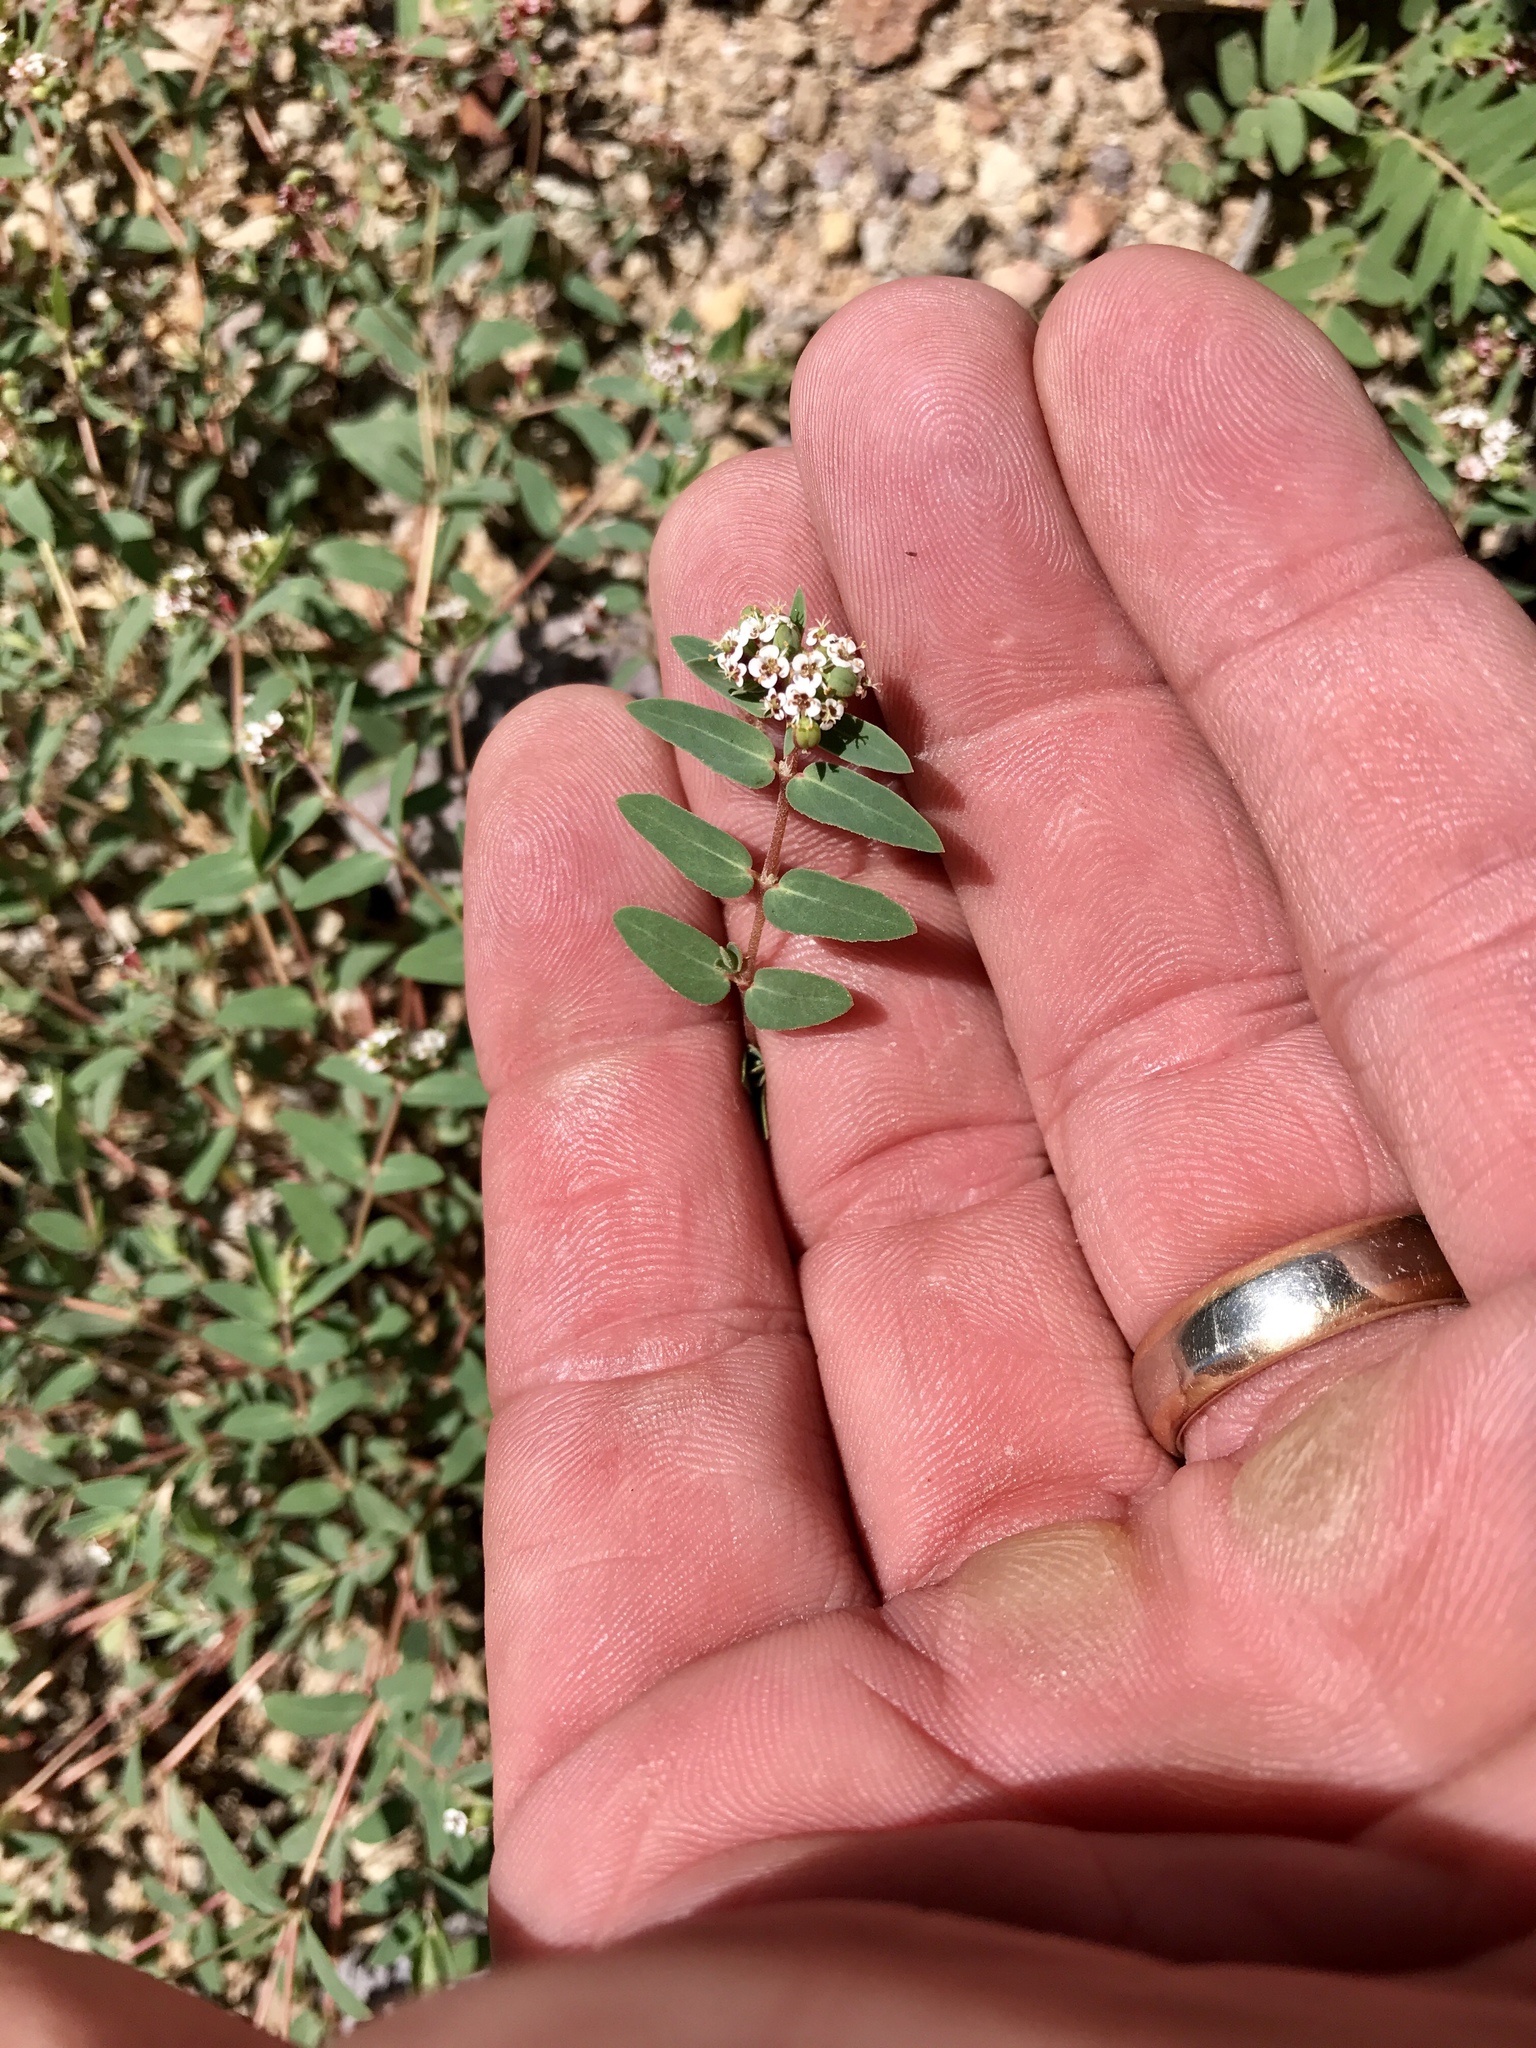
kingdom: Plantae
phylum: Tracheophyta
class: Magnoliopsida
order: Malpighiales
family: Euphorbiaceae
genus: Euphorbia
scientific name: Euphorbia capitellata
